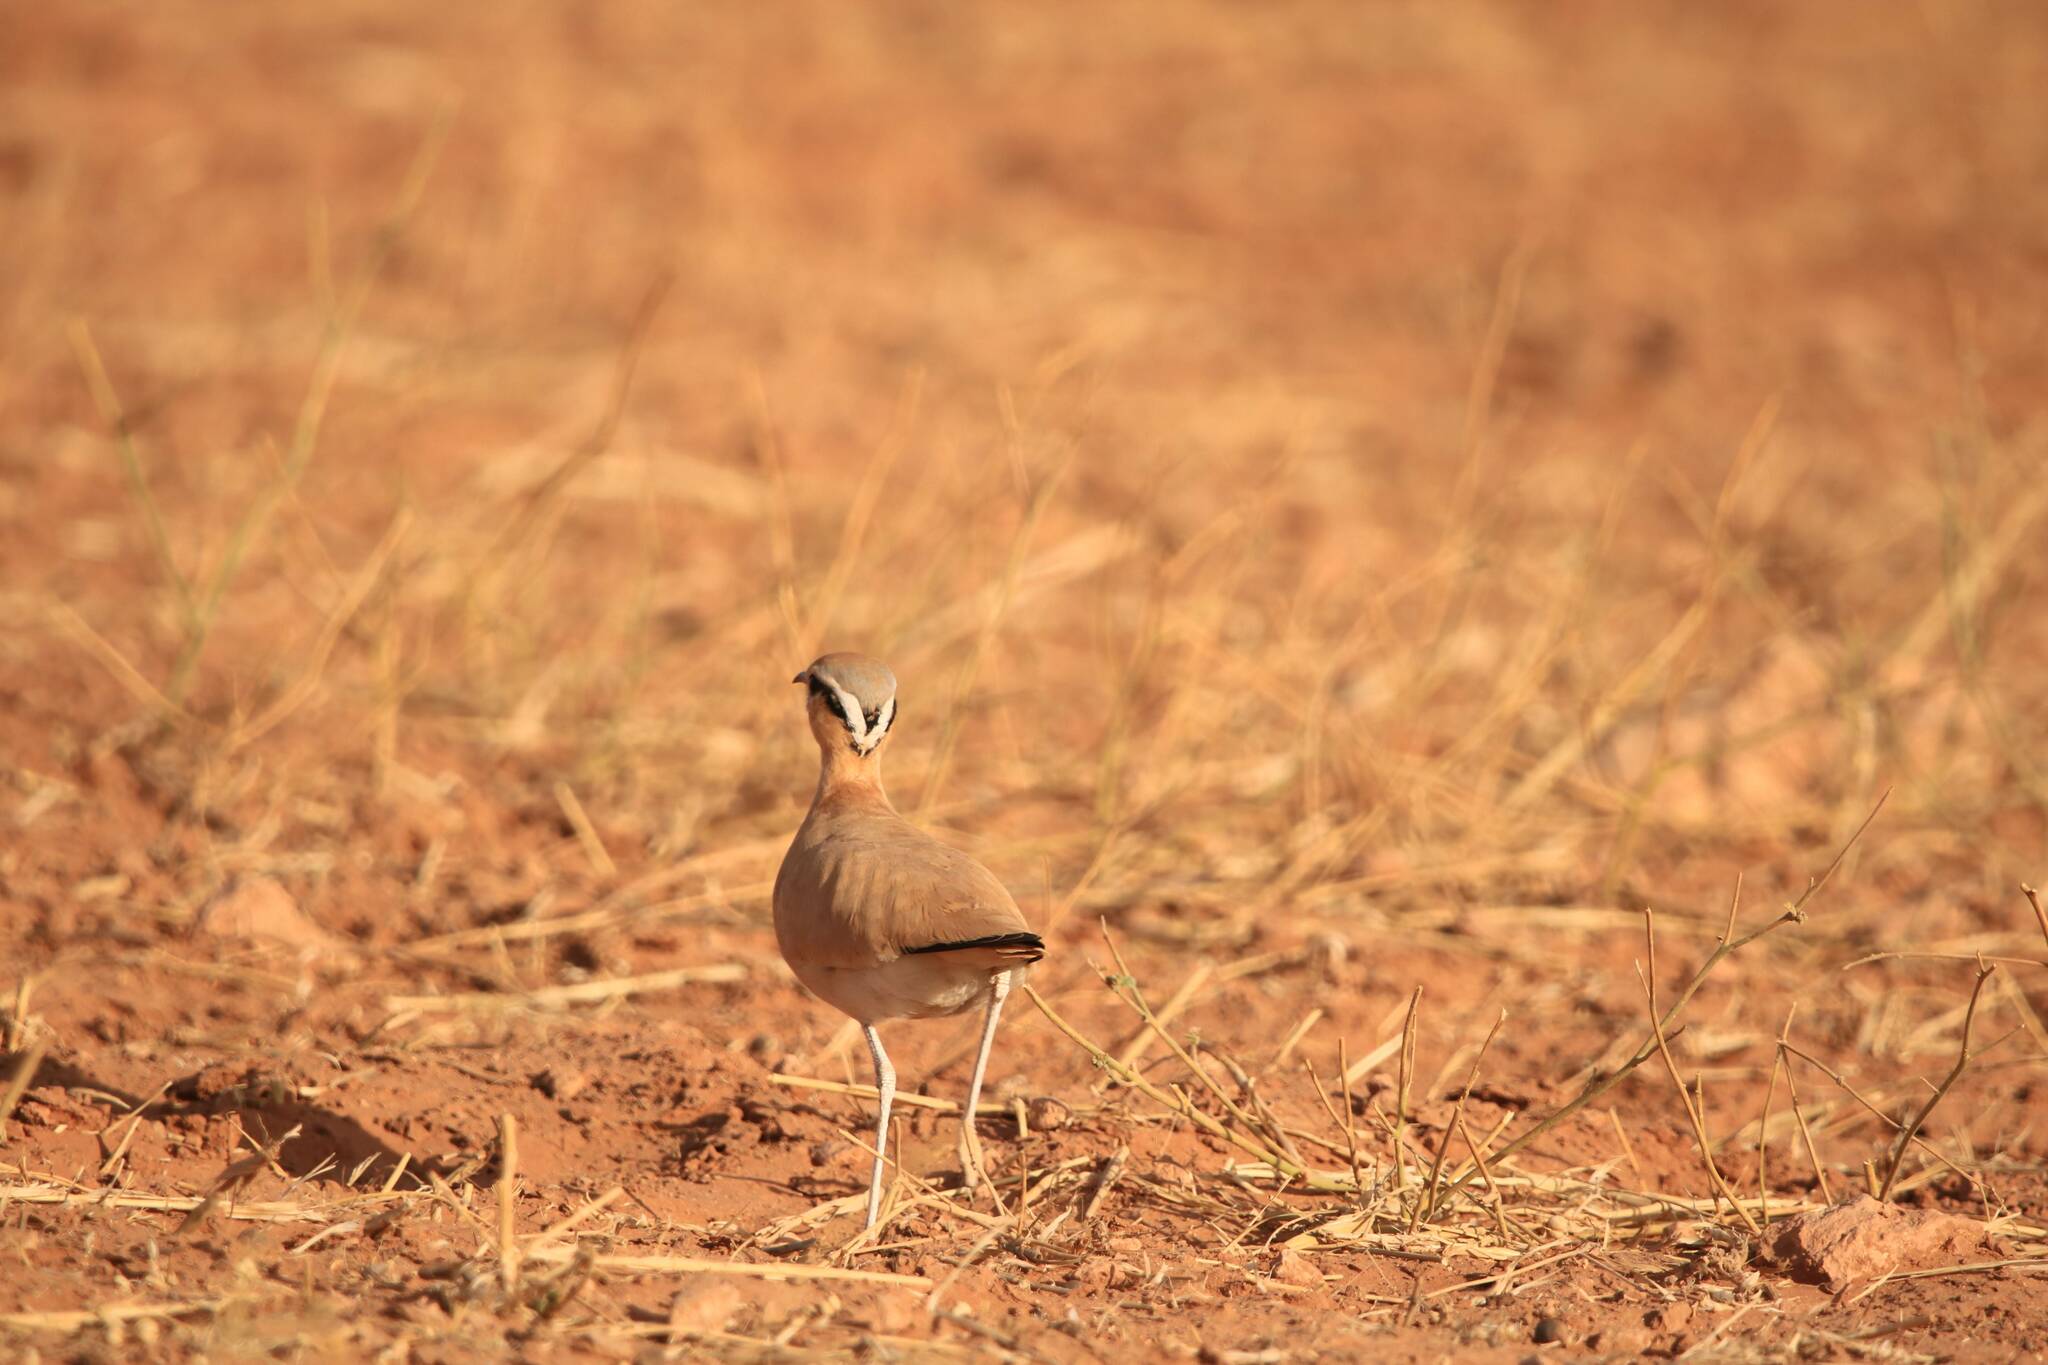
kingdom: Animalia
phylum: Chordata
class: Aves
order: Charadriiformes
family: Glareolidae
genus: Cursorius
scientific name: Cursorius cursor
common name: Cream-colored courser
